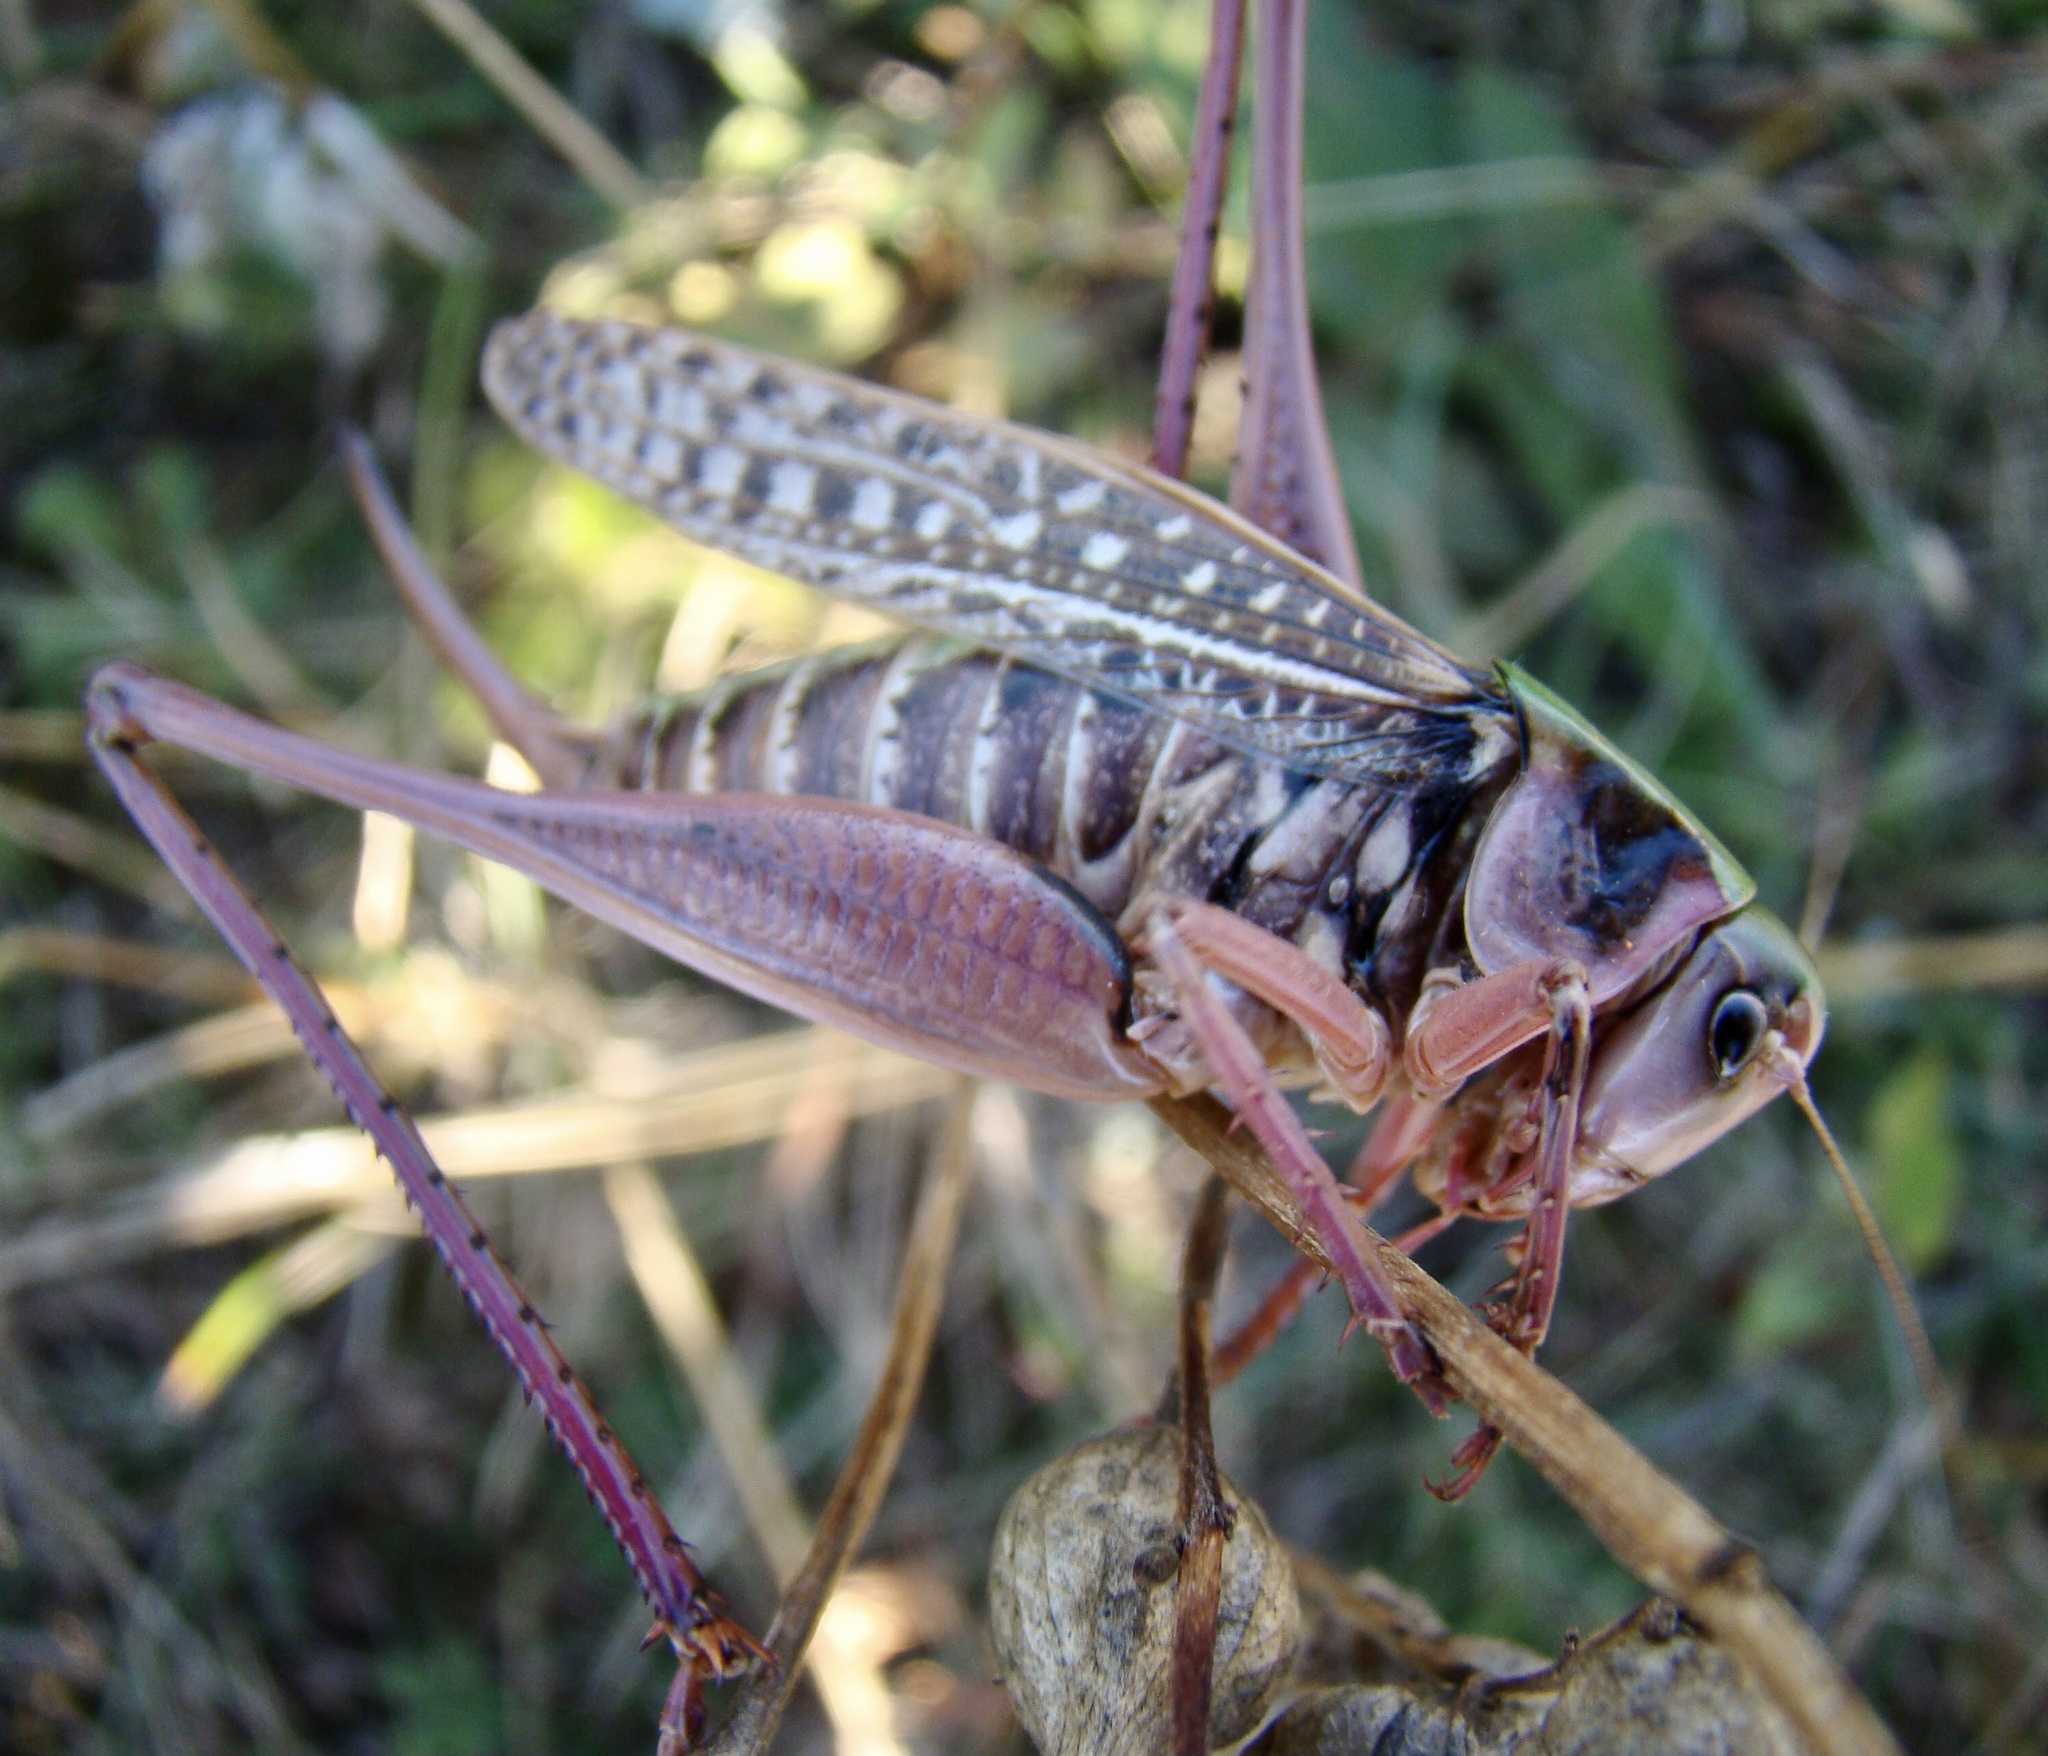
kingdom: Animalia
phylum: Arthropoda
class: Insecta
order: Orthoptera
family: Tettigoniidae
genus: Decticus
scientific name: Decticus verrucivorus
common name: Wart-biter
